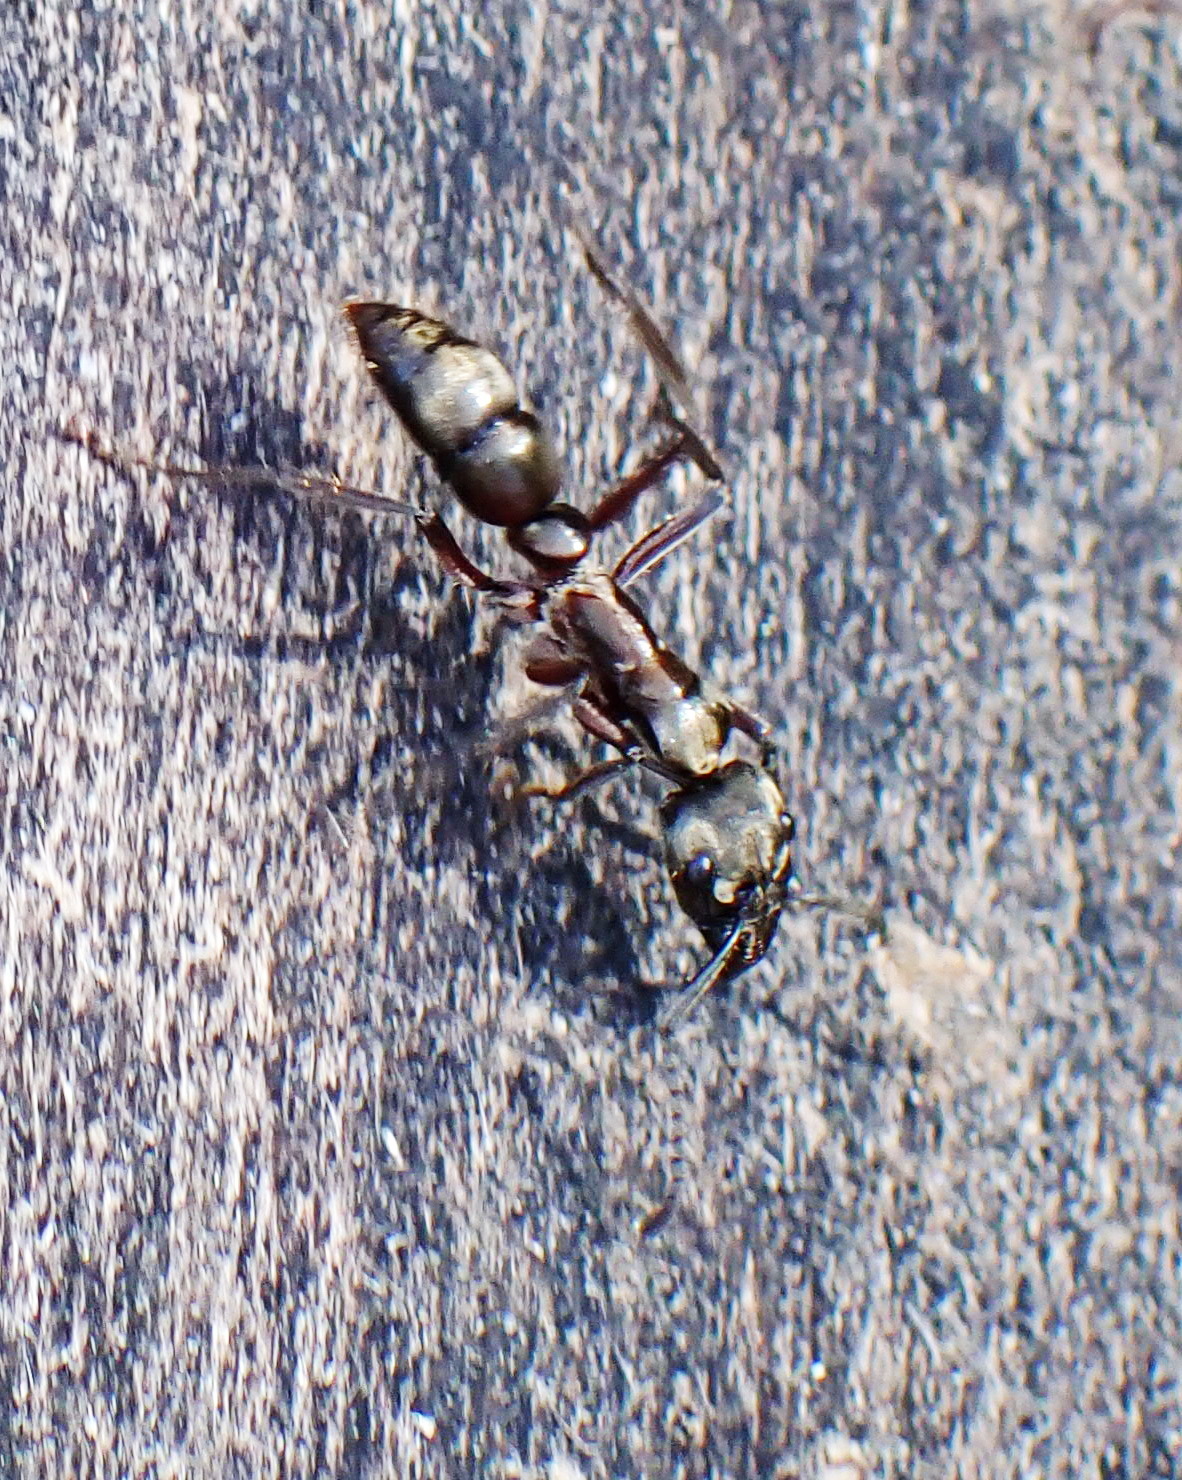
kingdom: Animalia
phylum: Arthropoda
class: Insecta
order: Hymenoptera
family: Formicidae
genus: Pachycondyla
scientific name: Pachycondyla villosa
